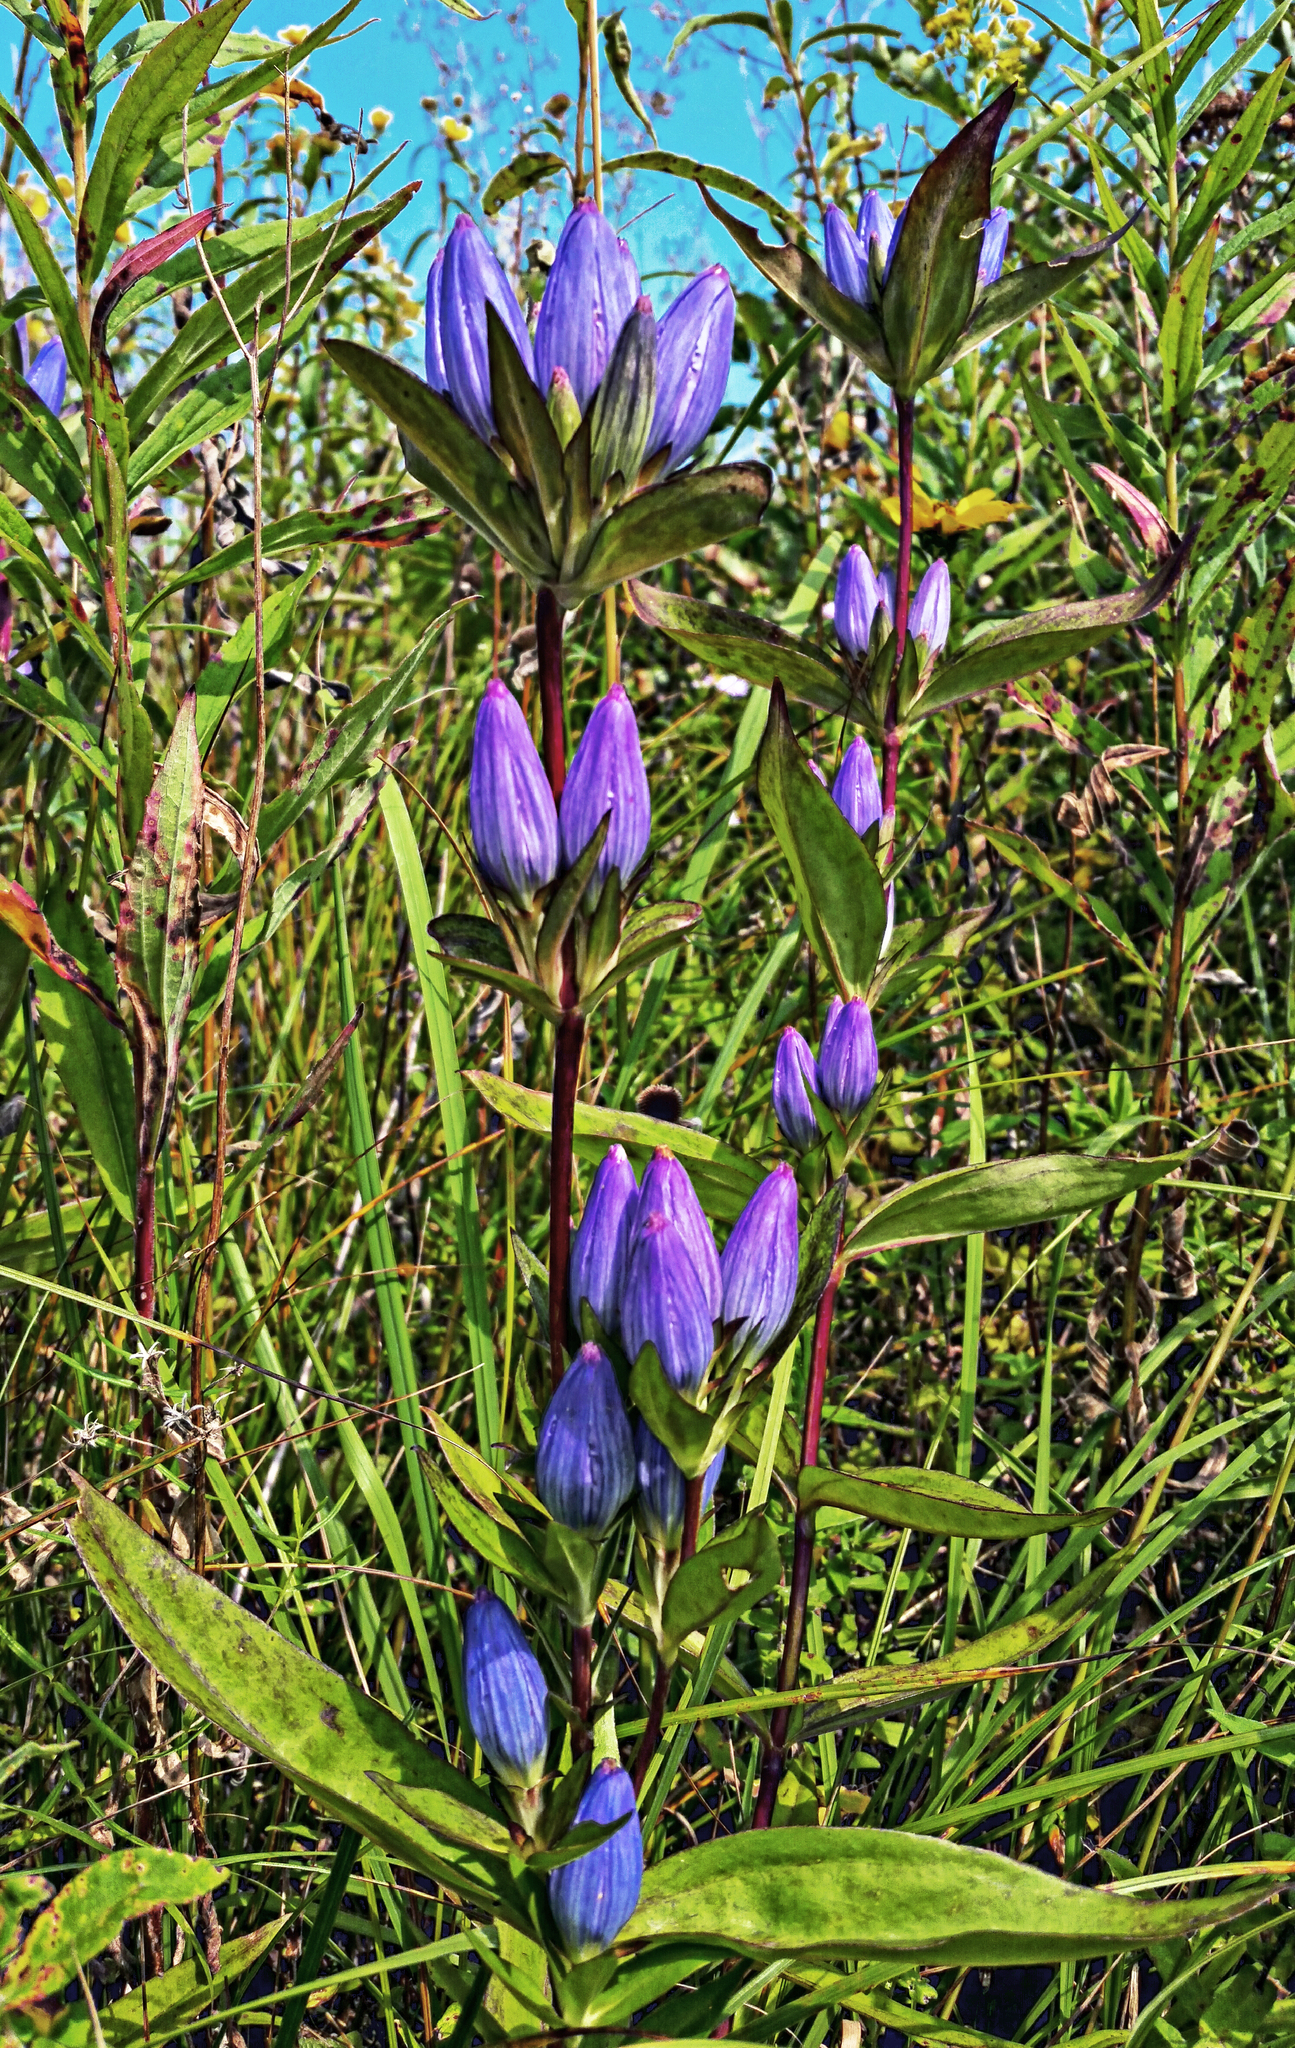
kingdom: Plantae
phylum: Tracheophyta
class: Magnoliopsida
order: Gentianales
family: Gentianaceae
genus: Gentiana
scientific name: Gentiana andrewsii
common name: Bottle gentian
